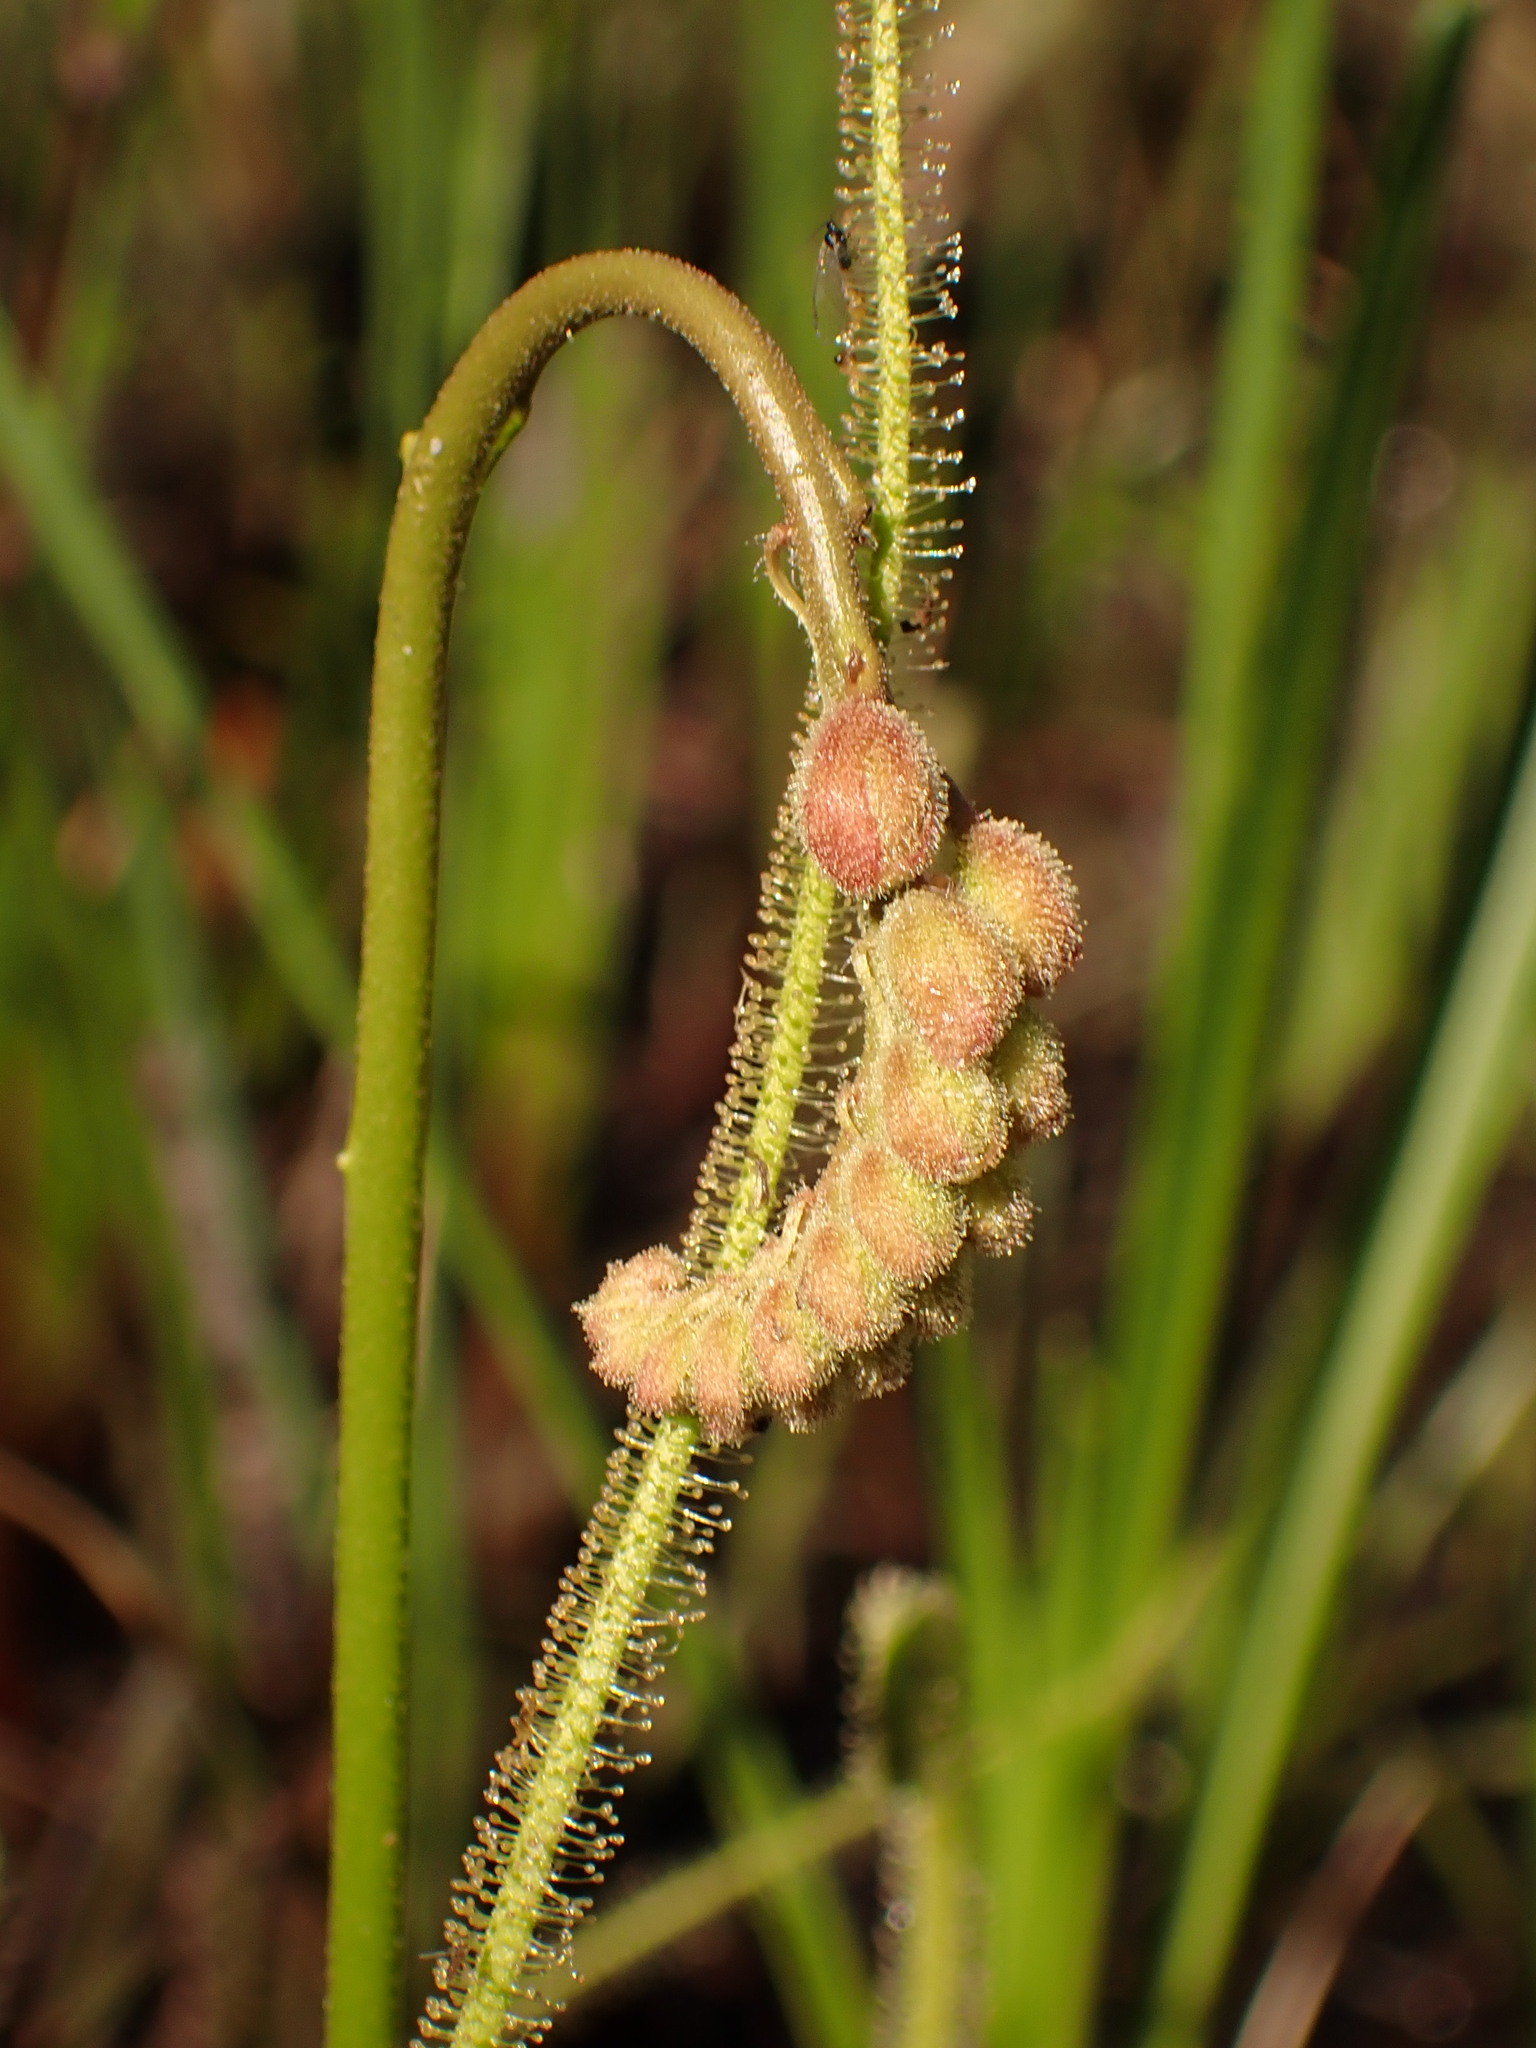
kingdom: Plantae
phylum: Tracheophyta
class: Magnoliopsida
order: Caryophyllales
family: Droseraceae
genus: Drosera
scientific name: Drosera filiformis
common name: Dew-thread
